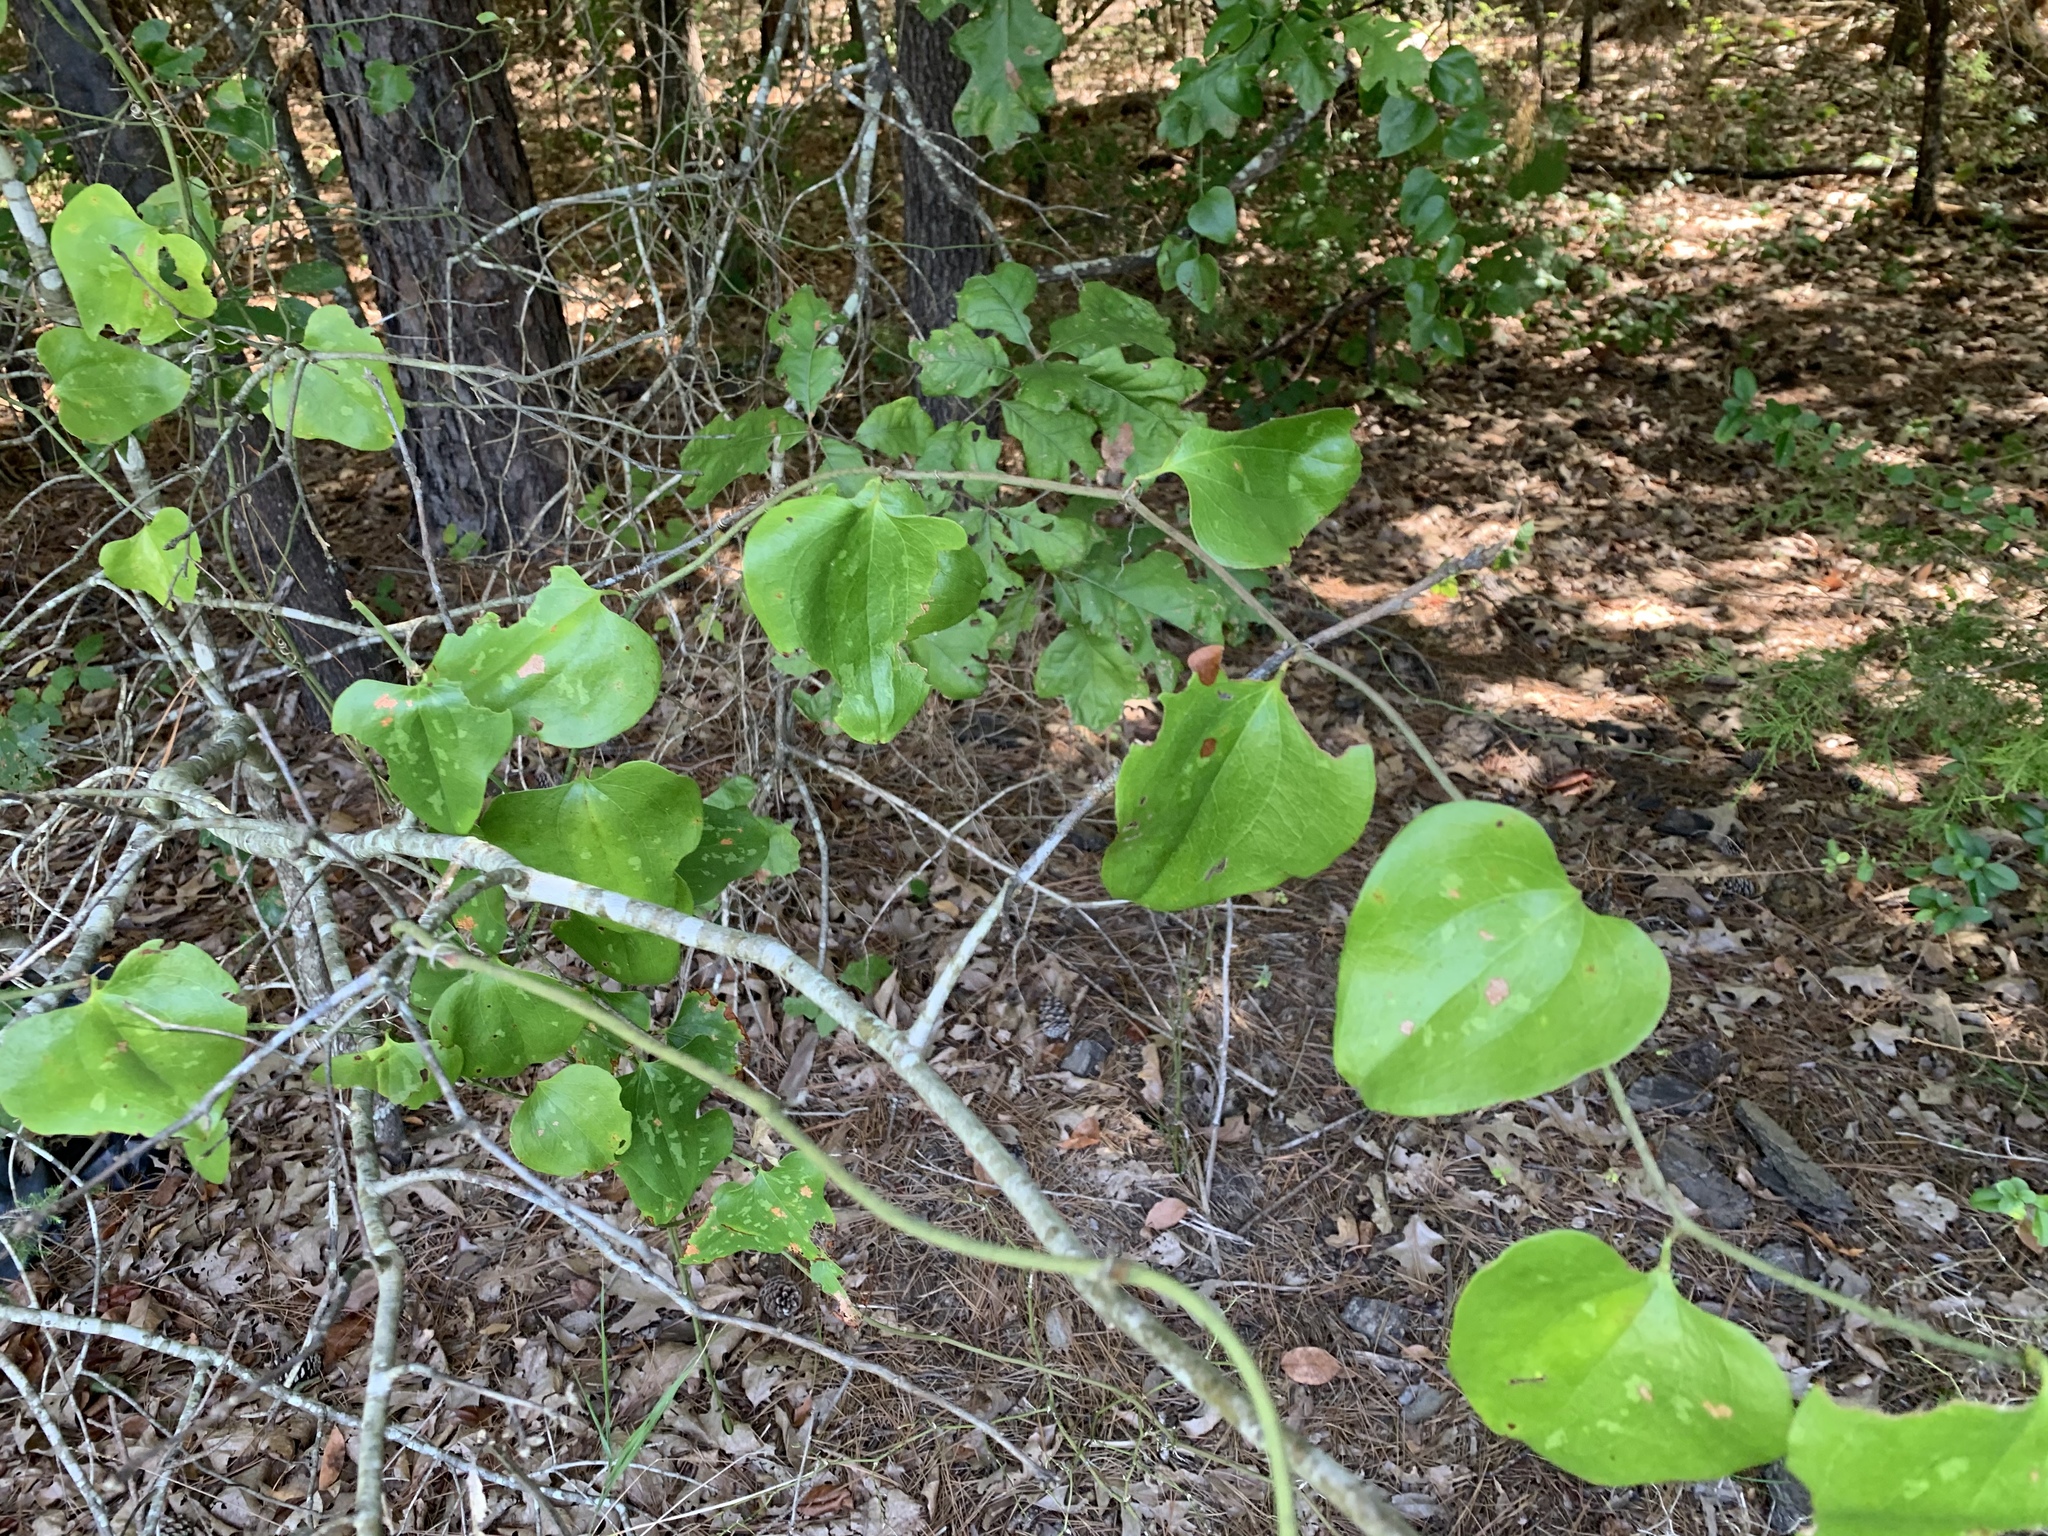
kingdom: Plantae
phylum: Tracheophyta
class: Liliopsida
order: Liliales
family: Smilacaceae
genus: Smilax
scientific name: Smilax bona-nox
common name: Catbrier
